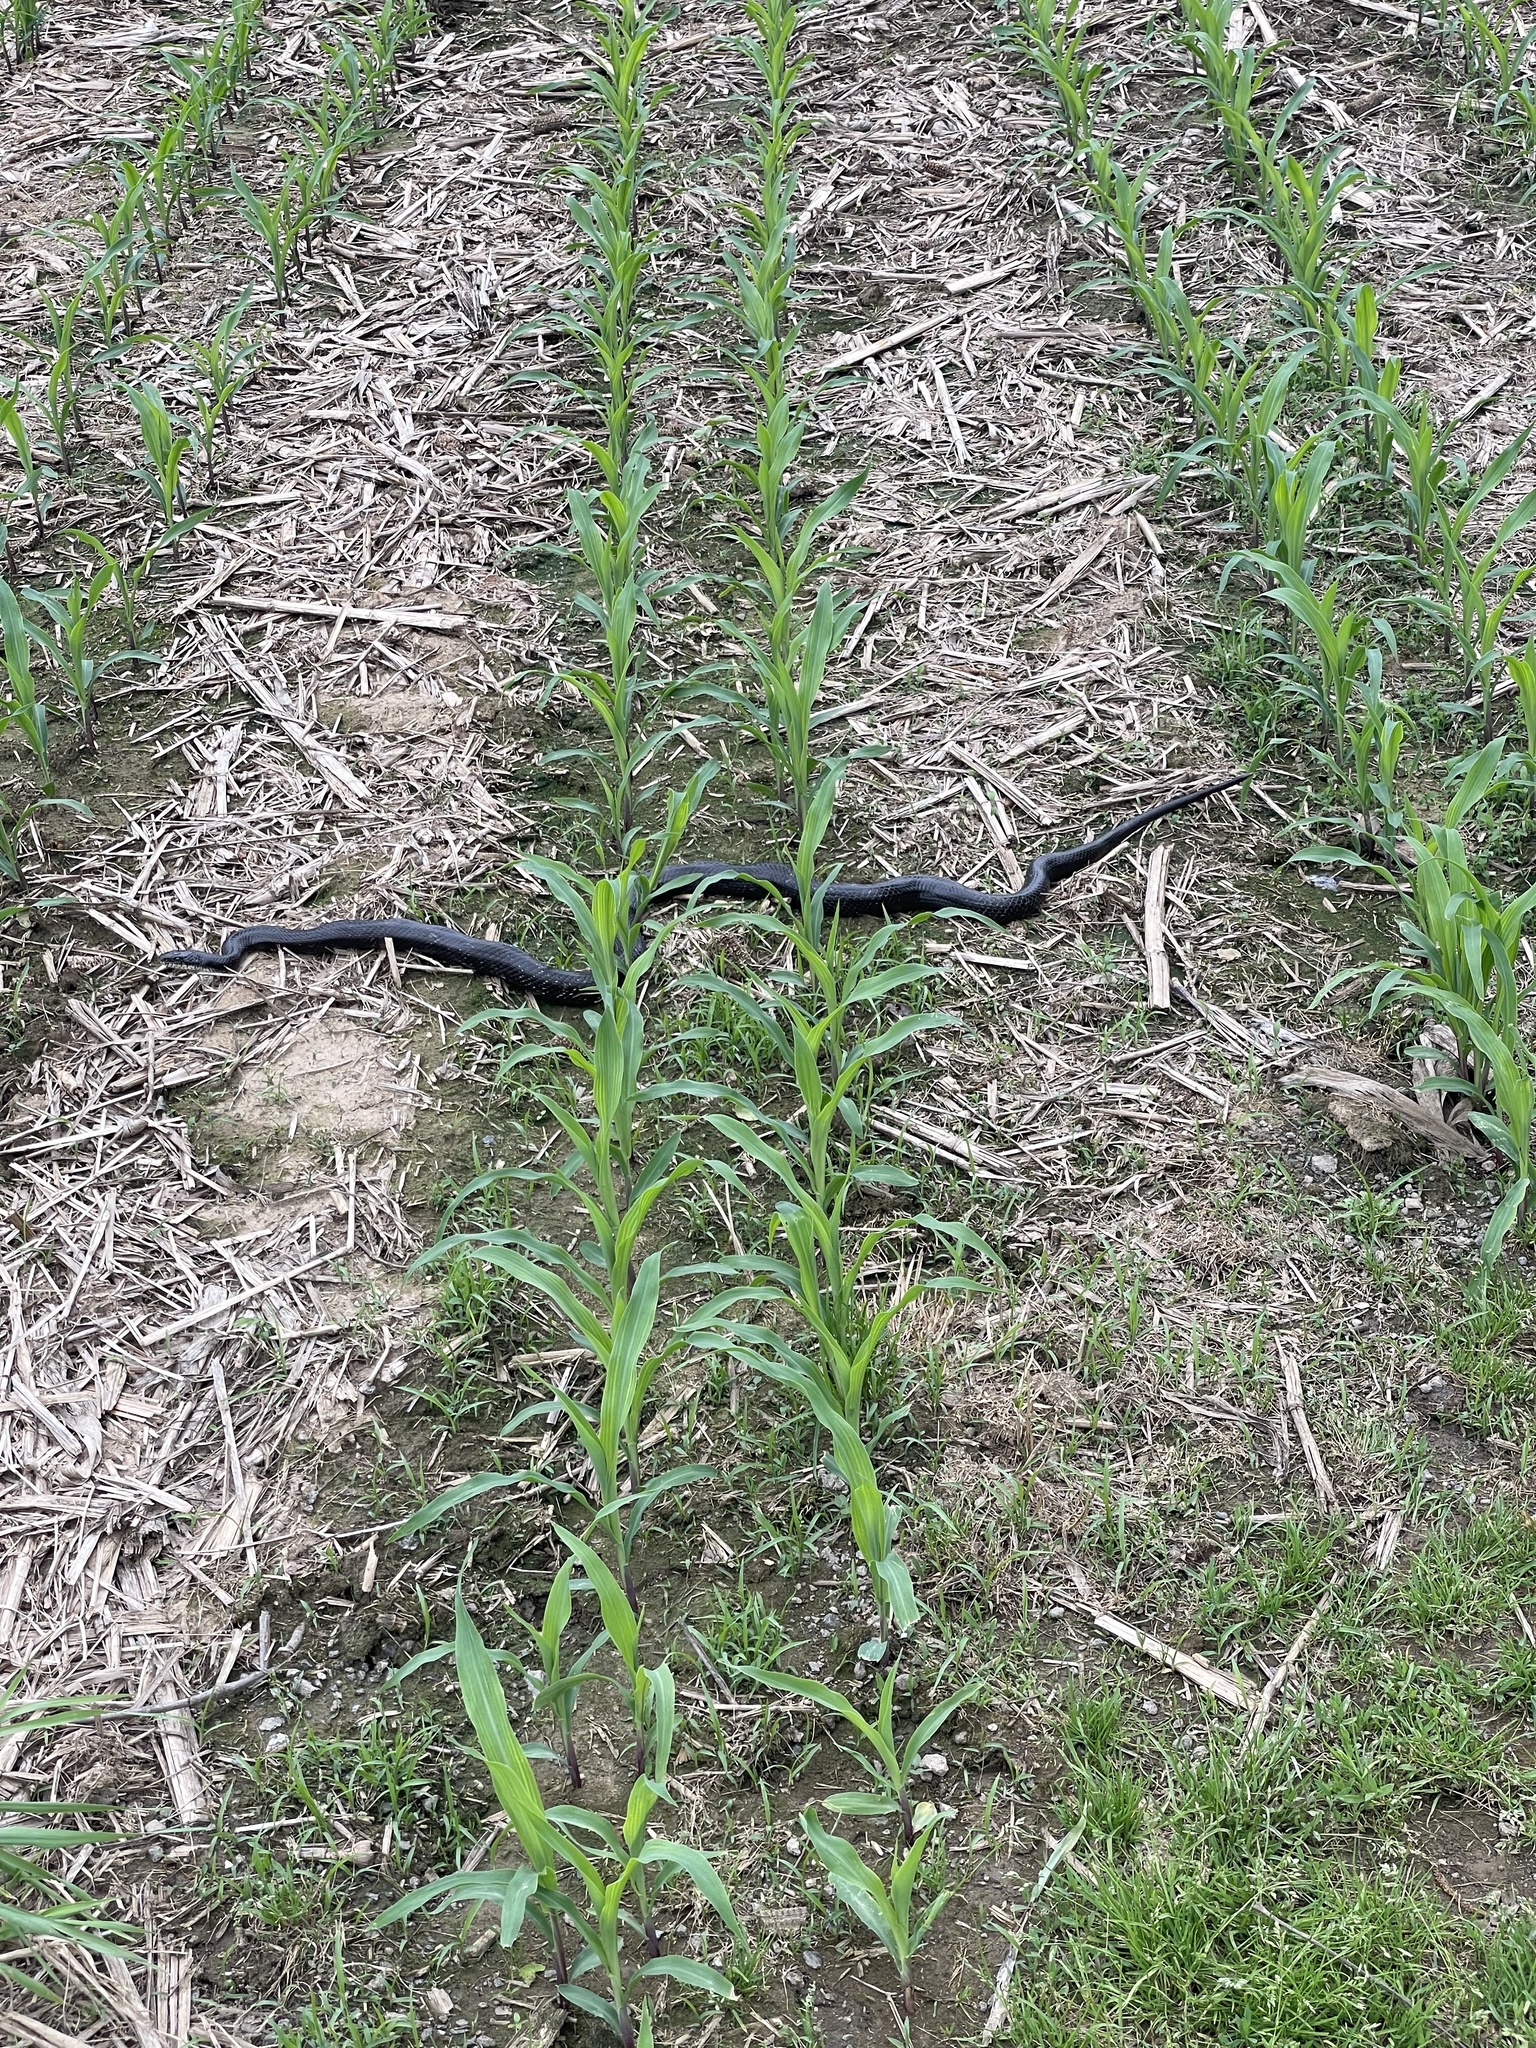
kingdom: Animalia
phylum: Chordata
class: Squamata
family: Colubridae
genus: Pantherophis
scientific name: Pantherophis alleghaniensis
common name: Eastern rat snake
